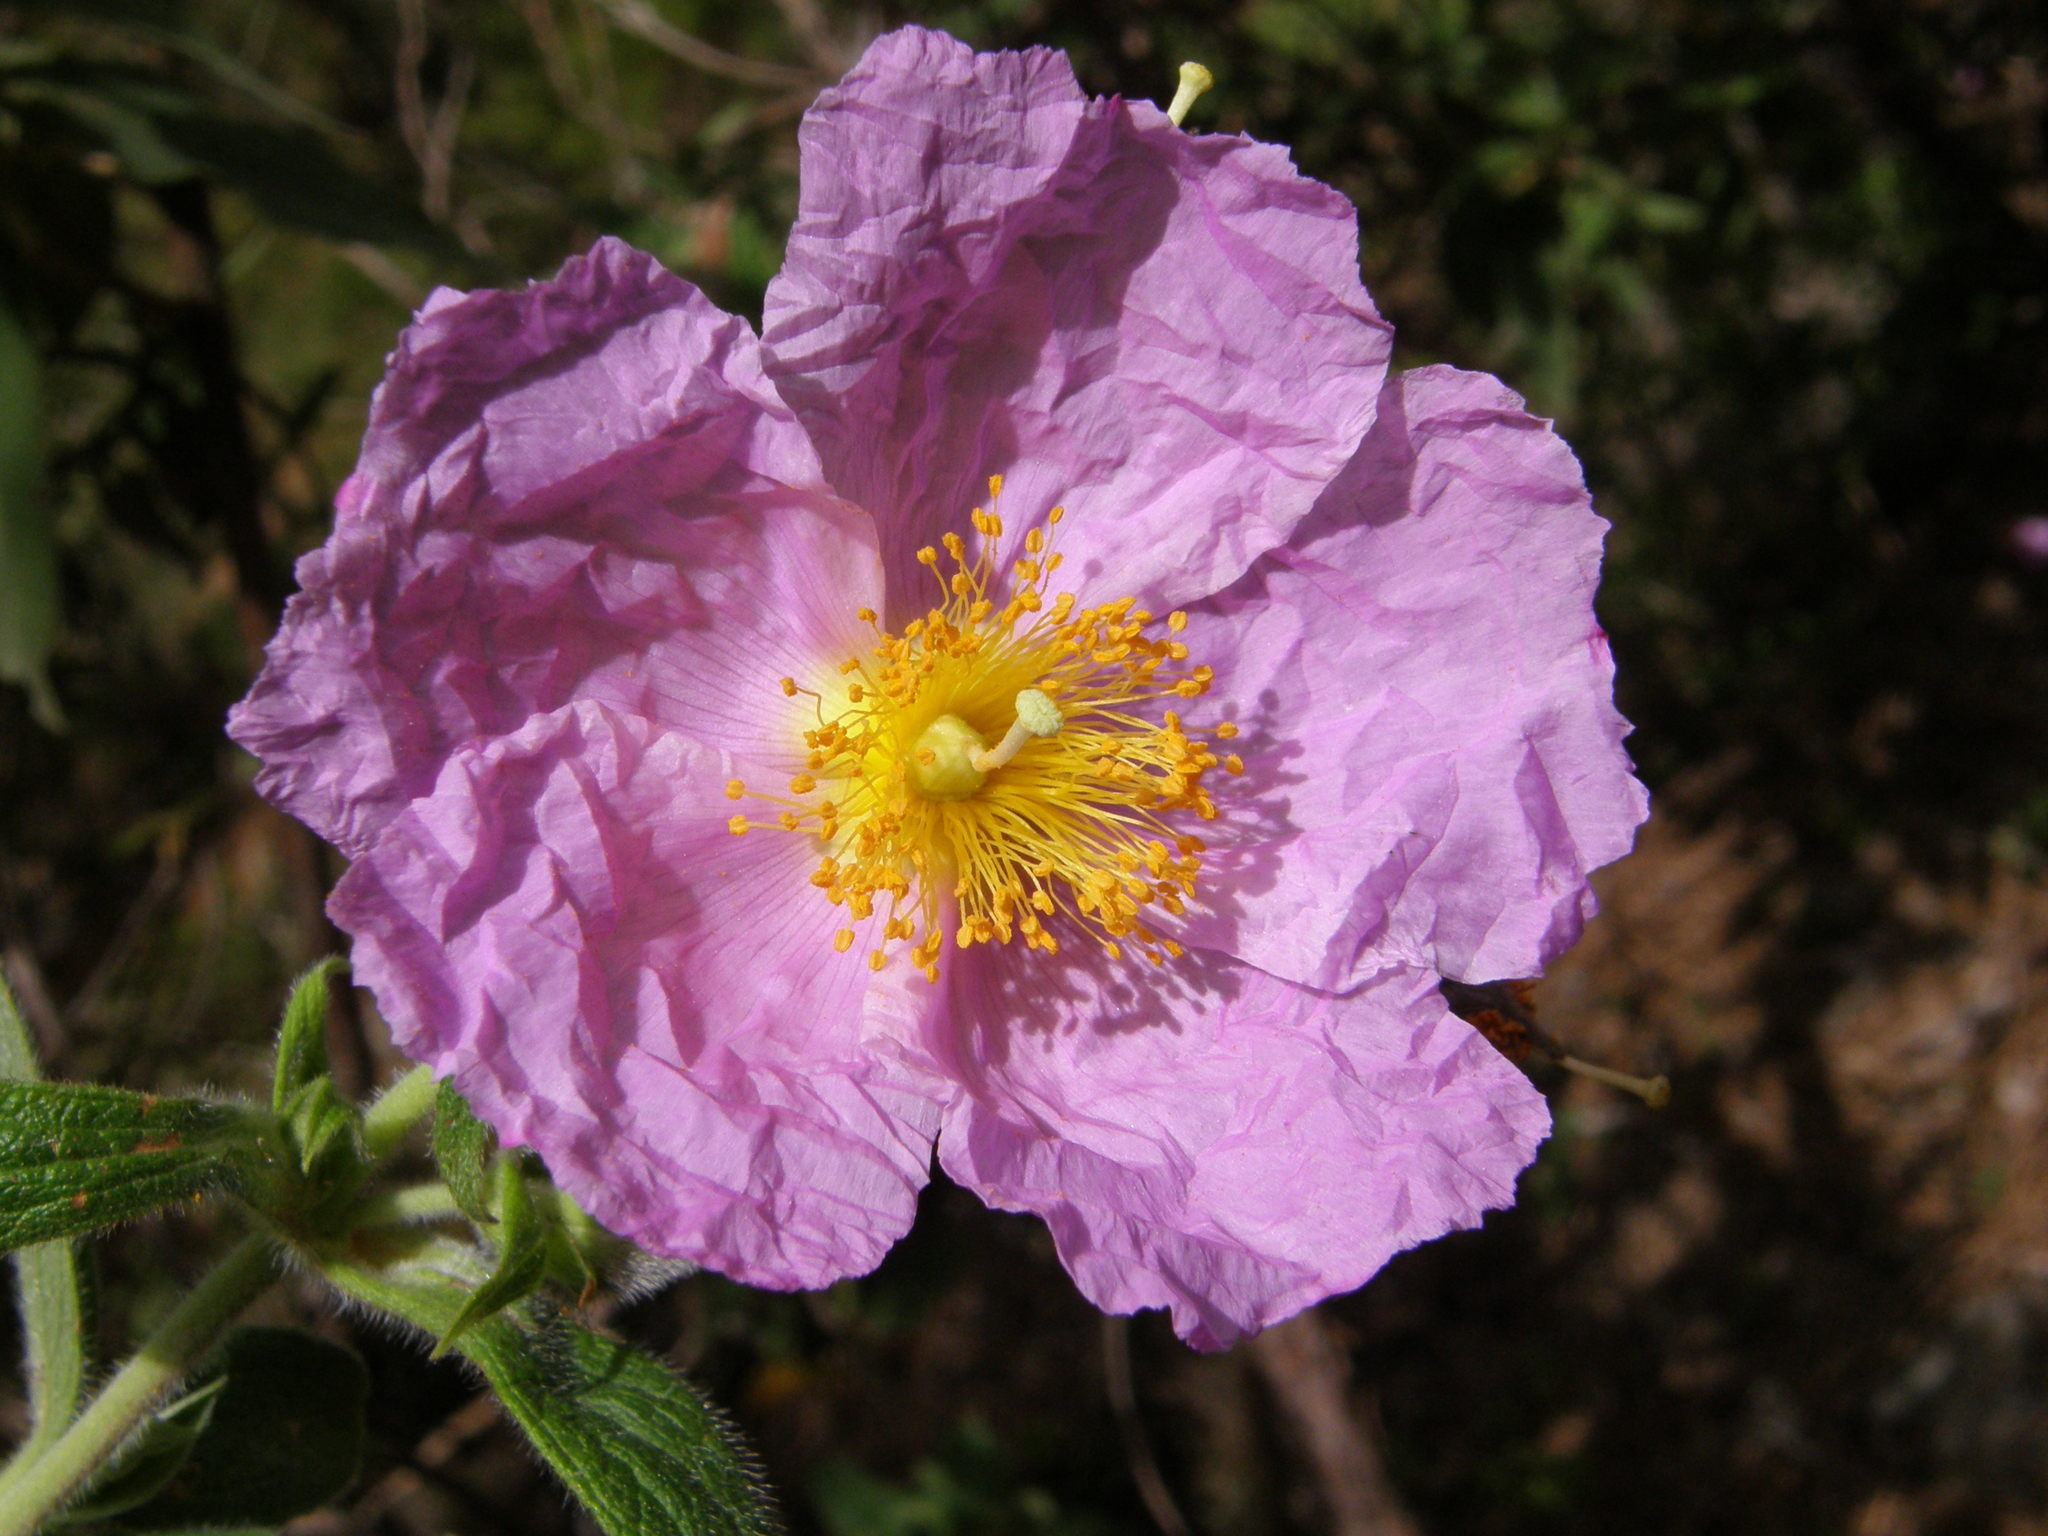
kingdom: Plantae
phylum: Tracheophyta
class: Magnoliopsida
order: Malvales
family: Cistaceae
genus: Cistus
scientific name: Cistus symphytifolius
